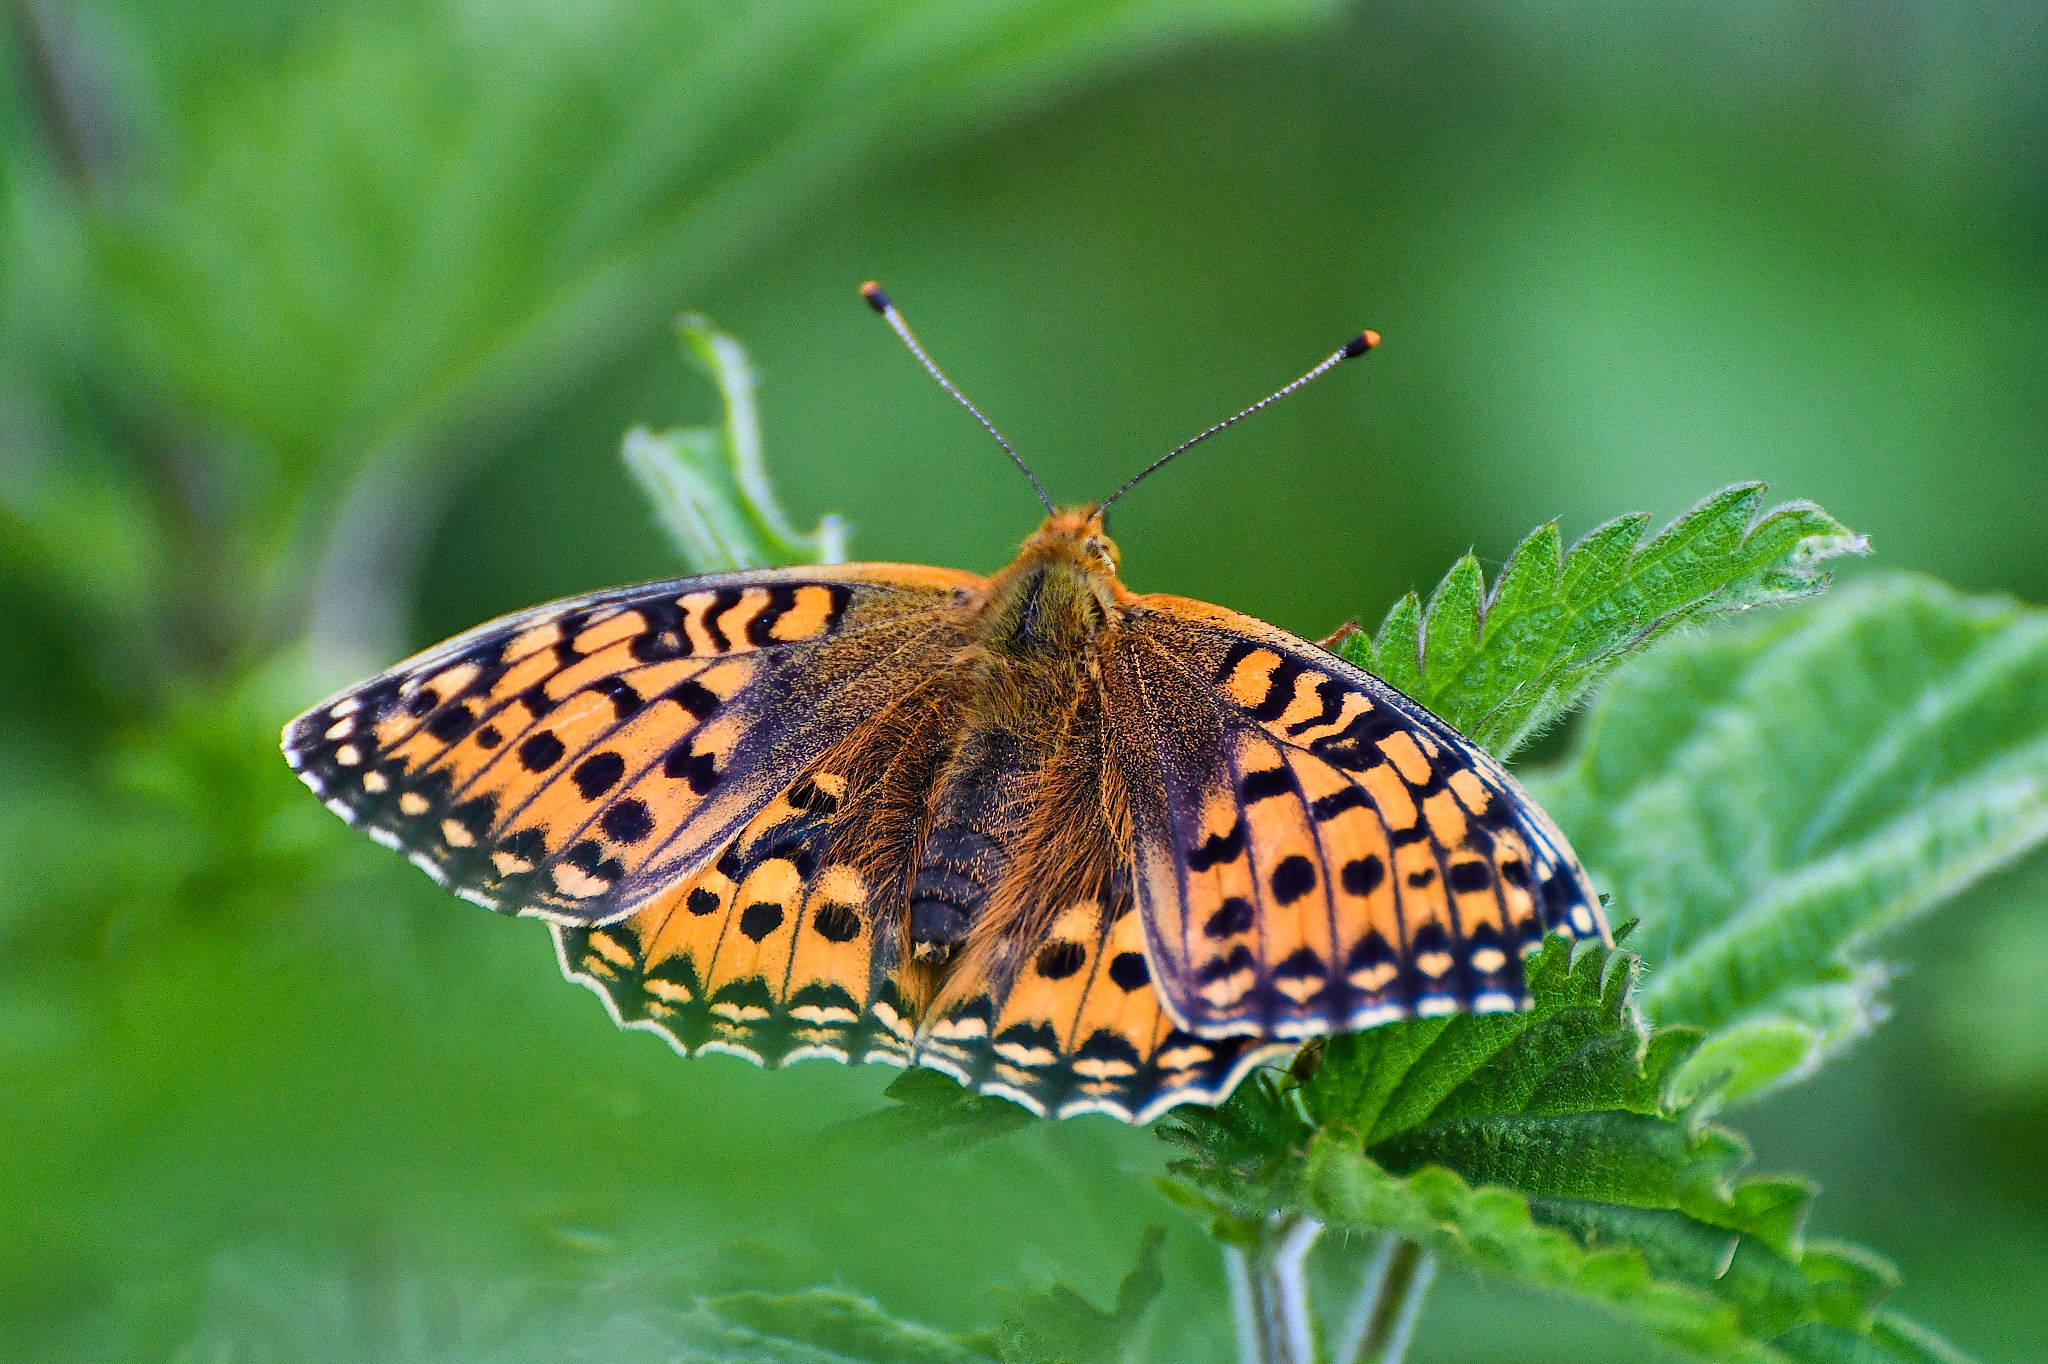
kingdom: Animalia
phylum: Arthropoda
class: Insecta
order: Lepidoptera
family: Nymphalidae
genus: Speyeria
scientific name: Speyeria aglaja
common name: Dark green fritillary
